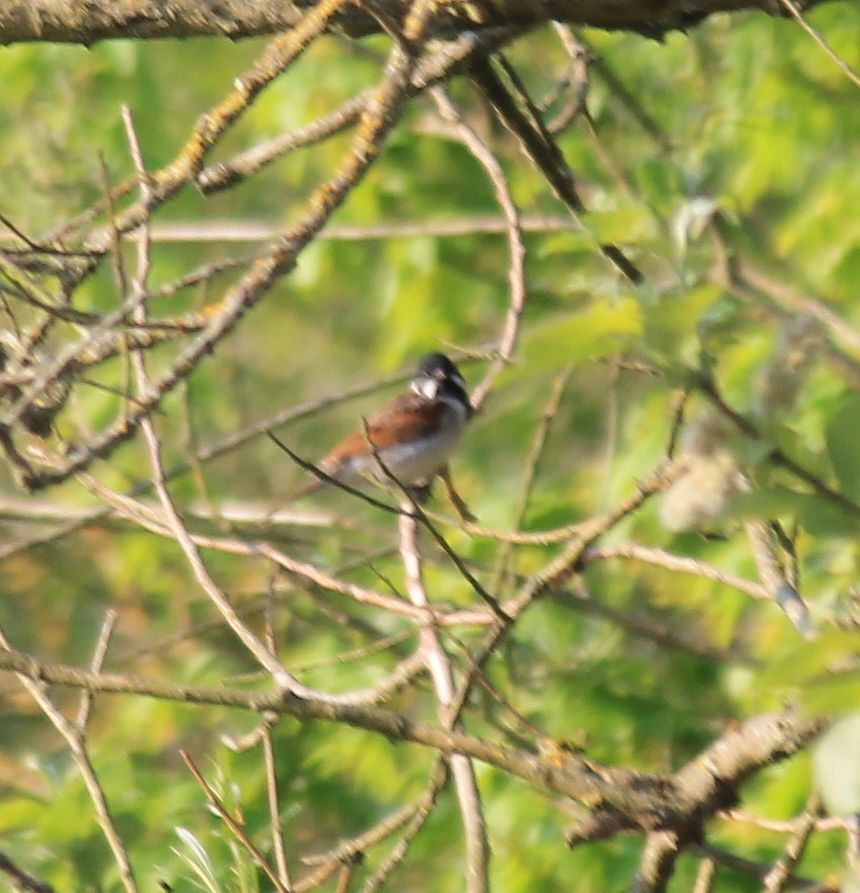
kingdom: Animalia
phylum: Chordata
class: Aves
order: Passeriformes
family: Emberizidae
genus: Emberiza
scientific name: Emberiza schoeniclus
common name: Reed bunting
